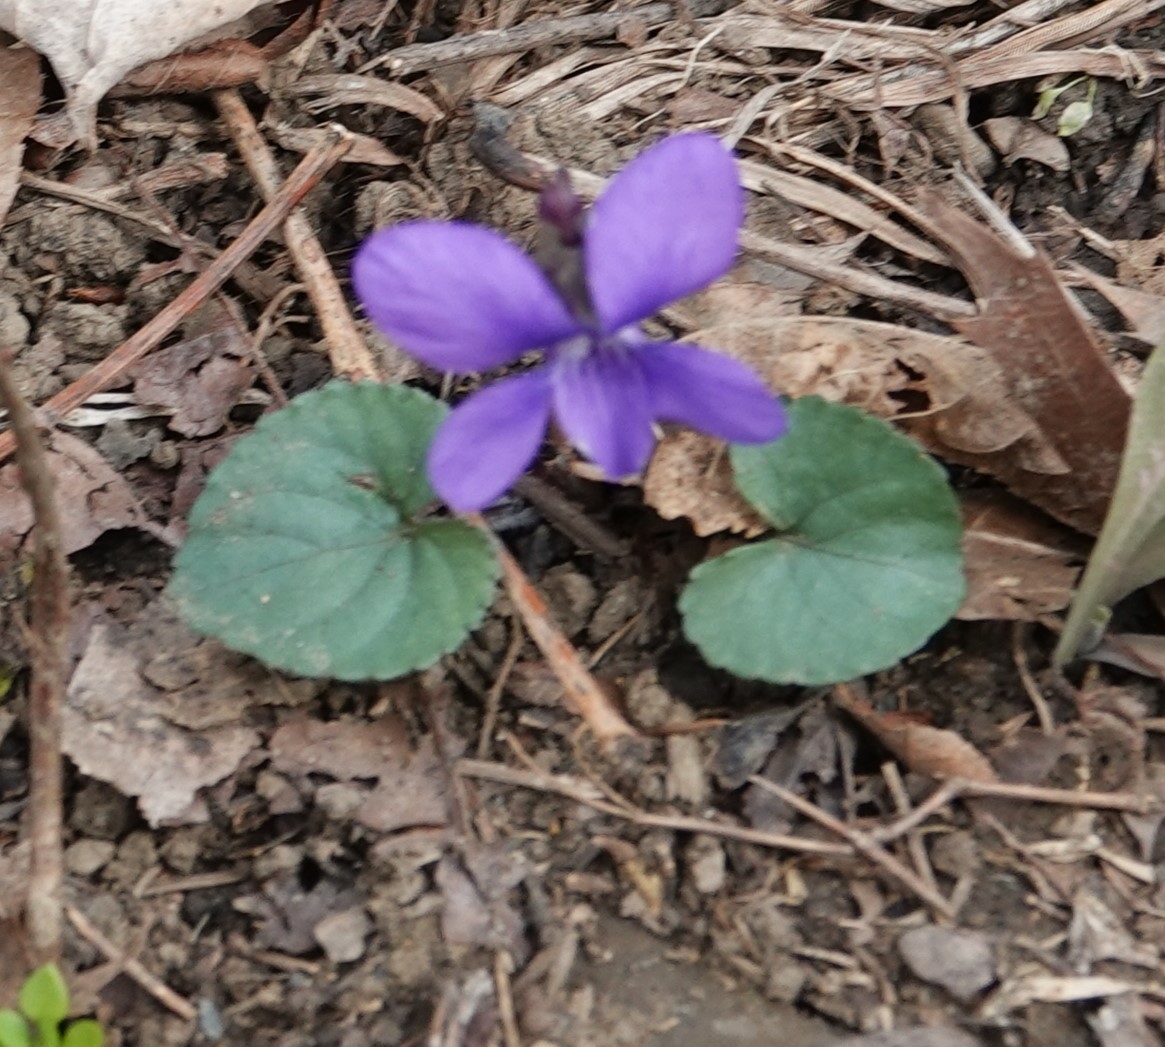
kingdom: Plantae
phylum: Tracheophyta
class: Magnoliopsida
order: Malpighiales
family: Violaceae
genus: Viola
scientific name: Viola sororia
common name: Dooryard violet
